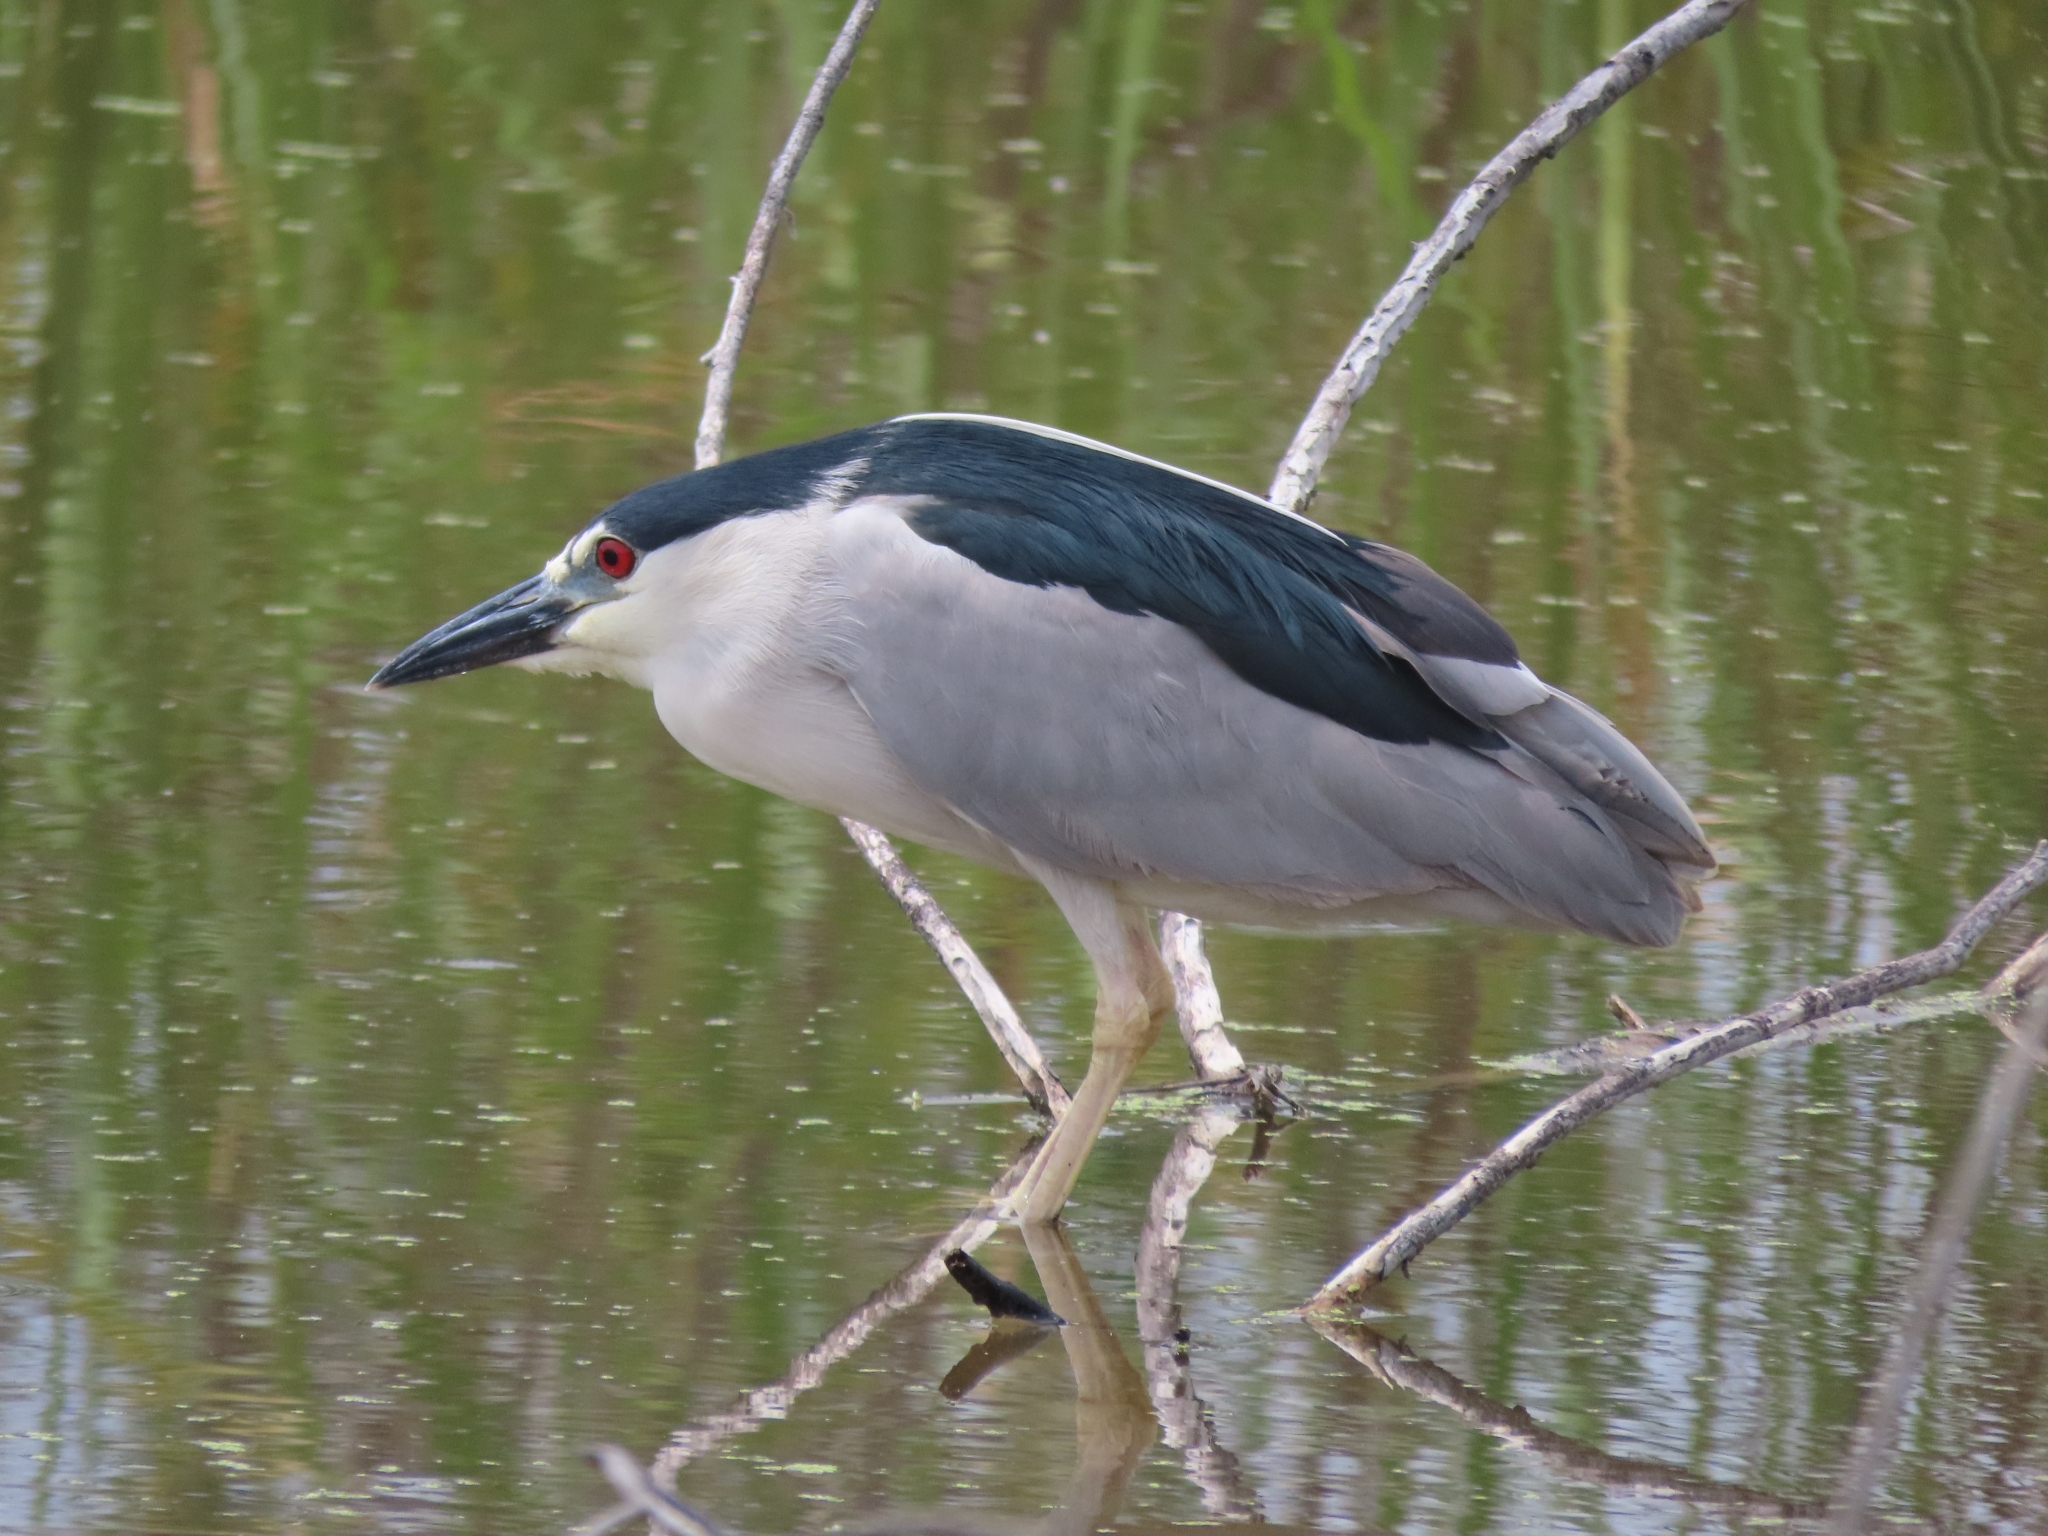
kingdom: Animalia
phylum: Chordata
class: Aves
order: Pelecaniformes
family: Ardeidae
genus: Nycticorax
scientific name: Nycticorax nycticorax
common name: Black-crowned night heron
